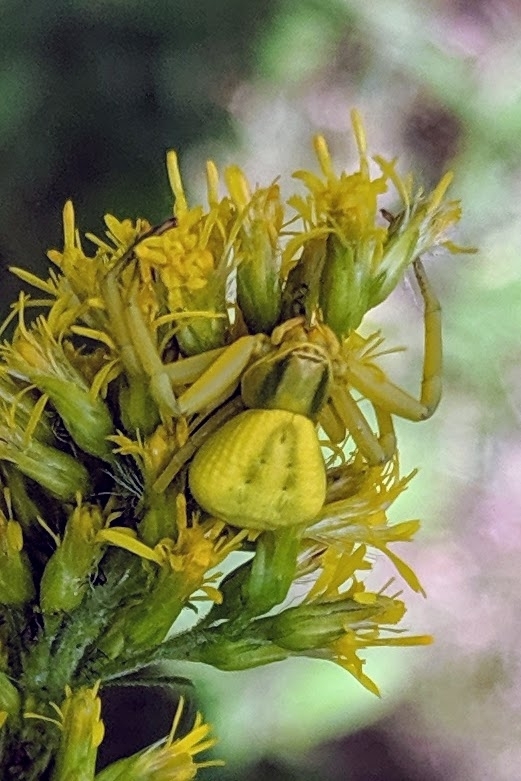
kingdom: Animalia
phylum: Arthropoda
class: Arachnida
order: Araneae
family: Thomisidae
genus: Misumenoides
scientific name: Misumenoides formosipes
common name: White-banded crab spider
